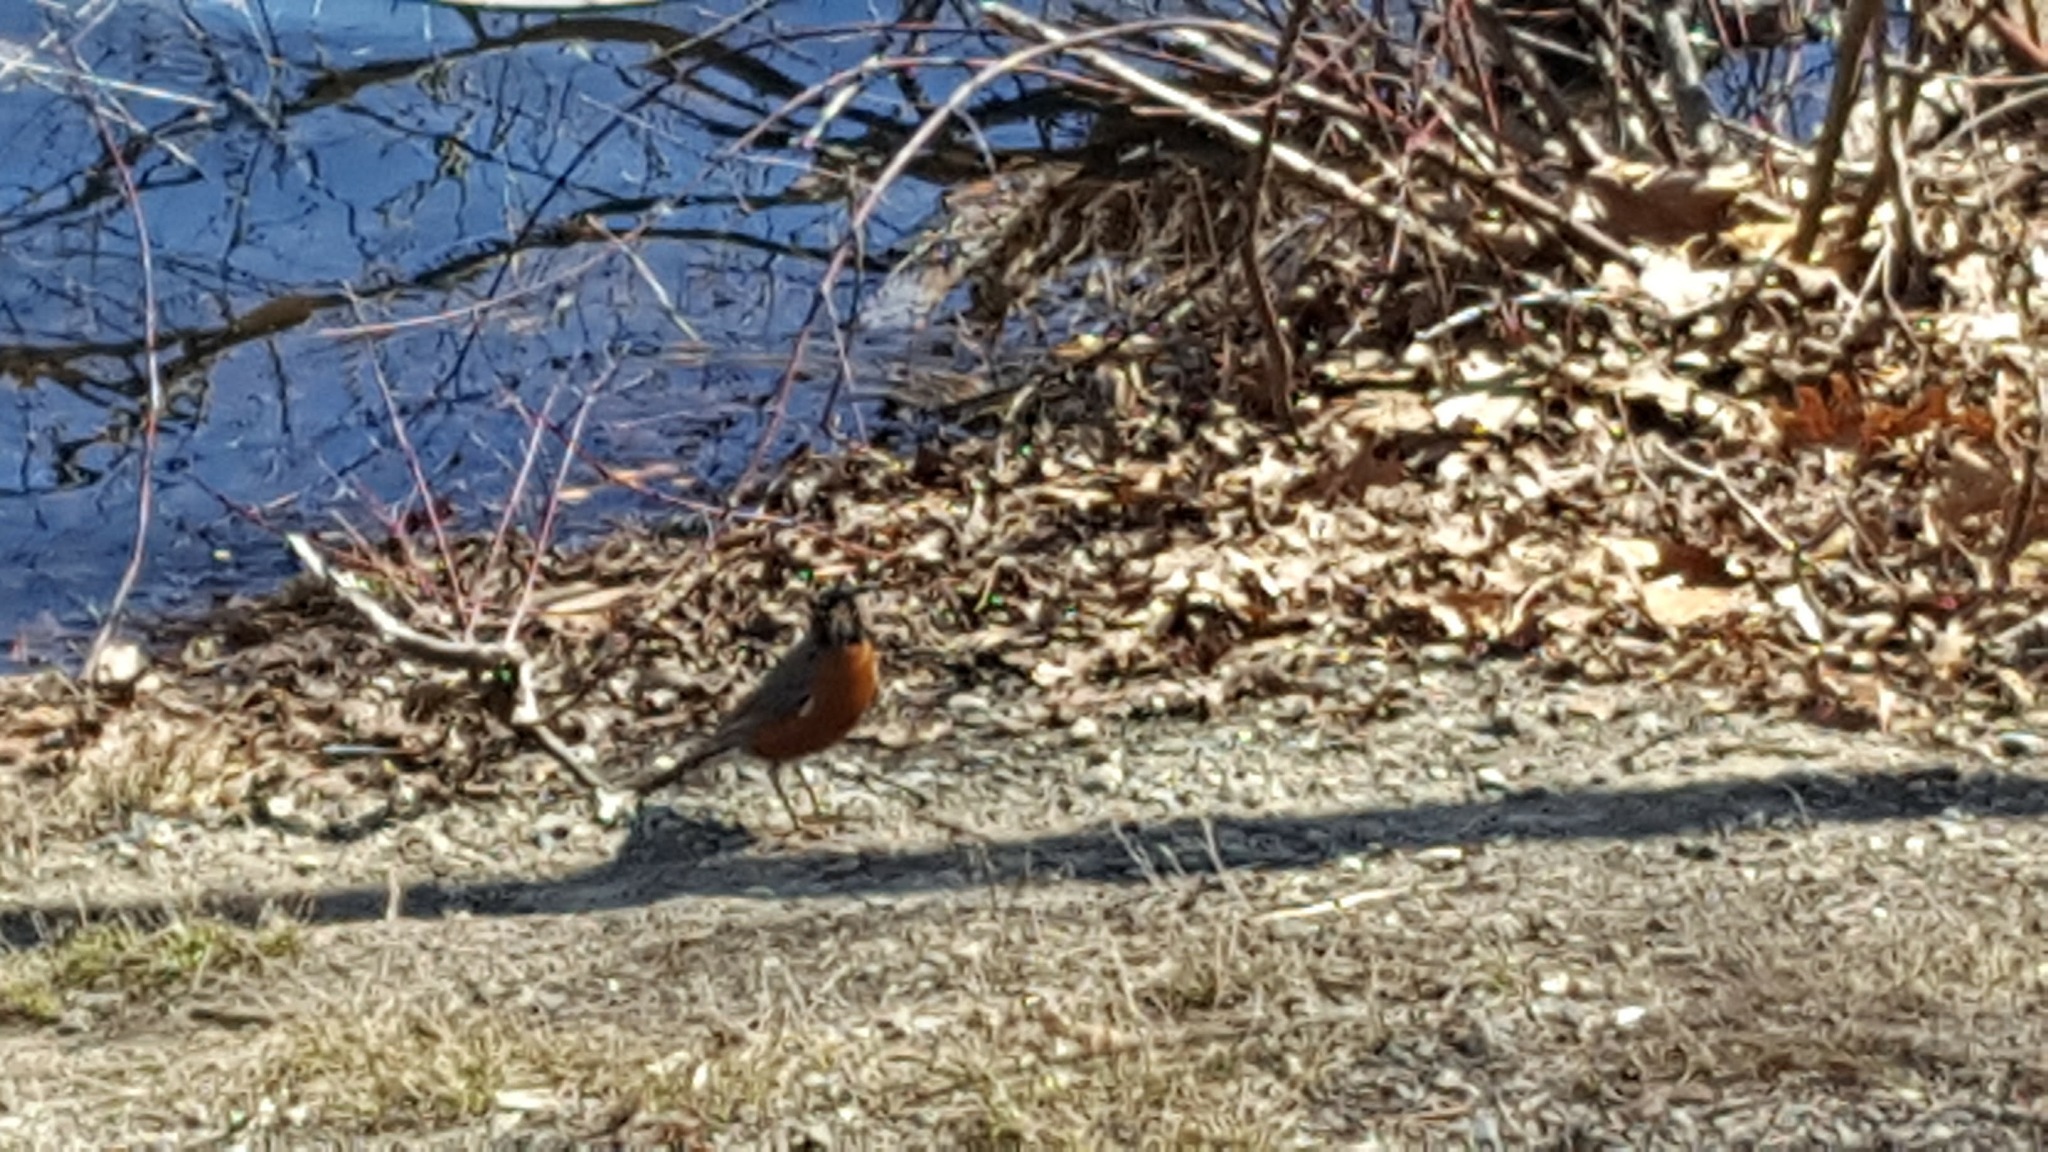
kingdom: Animalia
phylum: Chordata
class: Aves
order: Passeriformes
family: Turdidae
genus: Turdus
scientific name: Turdus migratorius
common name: American robin
